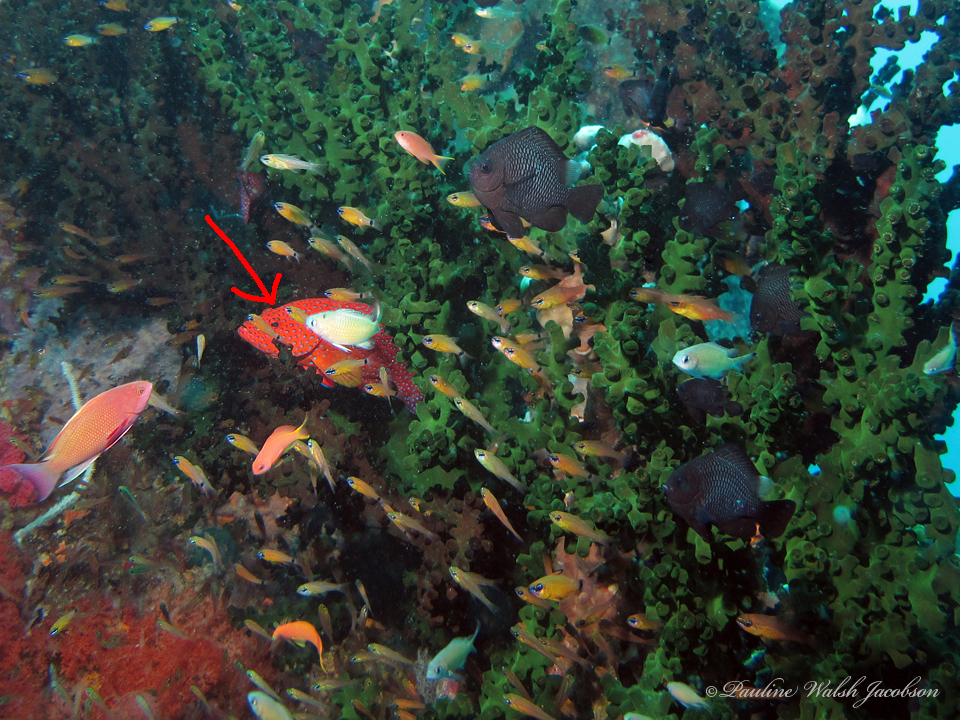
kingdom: Animalia
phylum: Chordata
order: Perciformes
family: Serranidae
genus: Cephalopholis
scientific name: Cephalopholis miniata
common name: Coral hind
